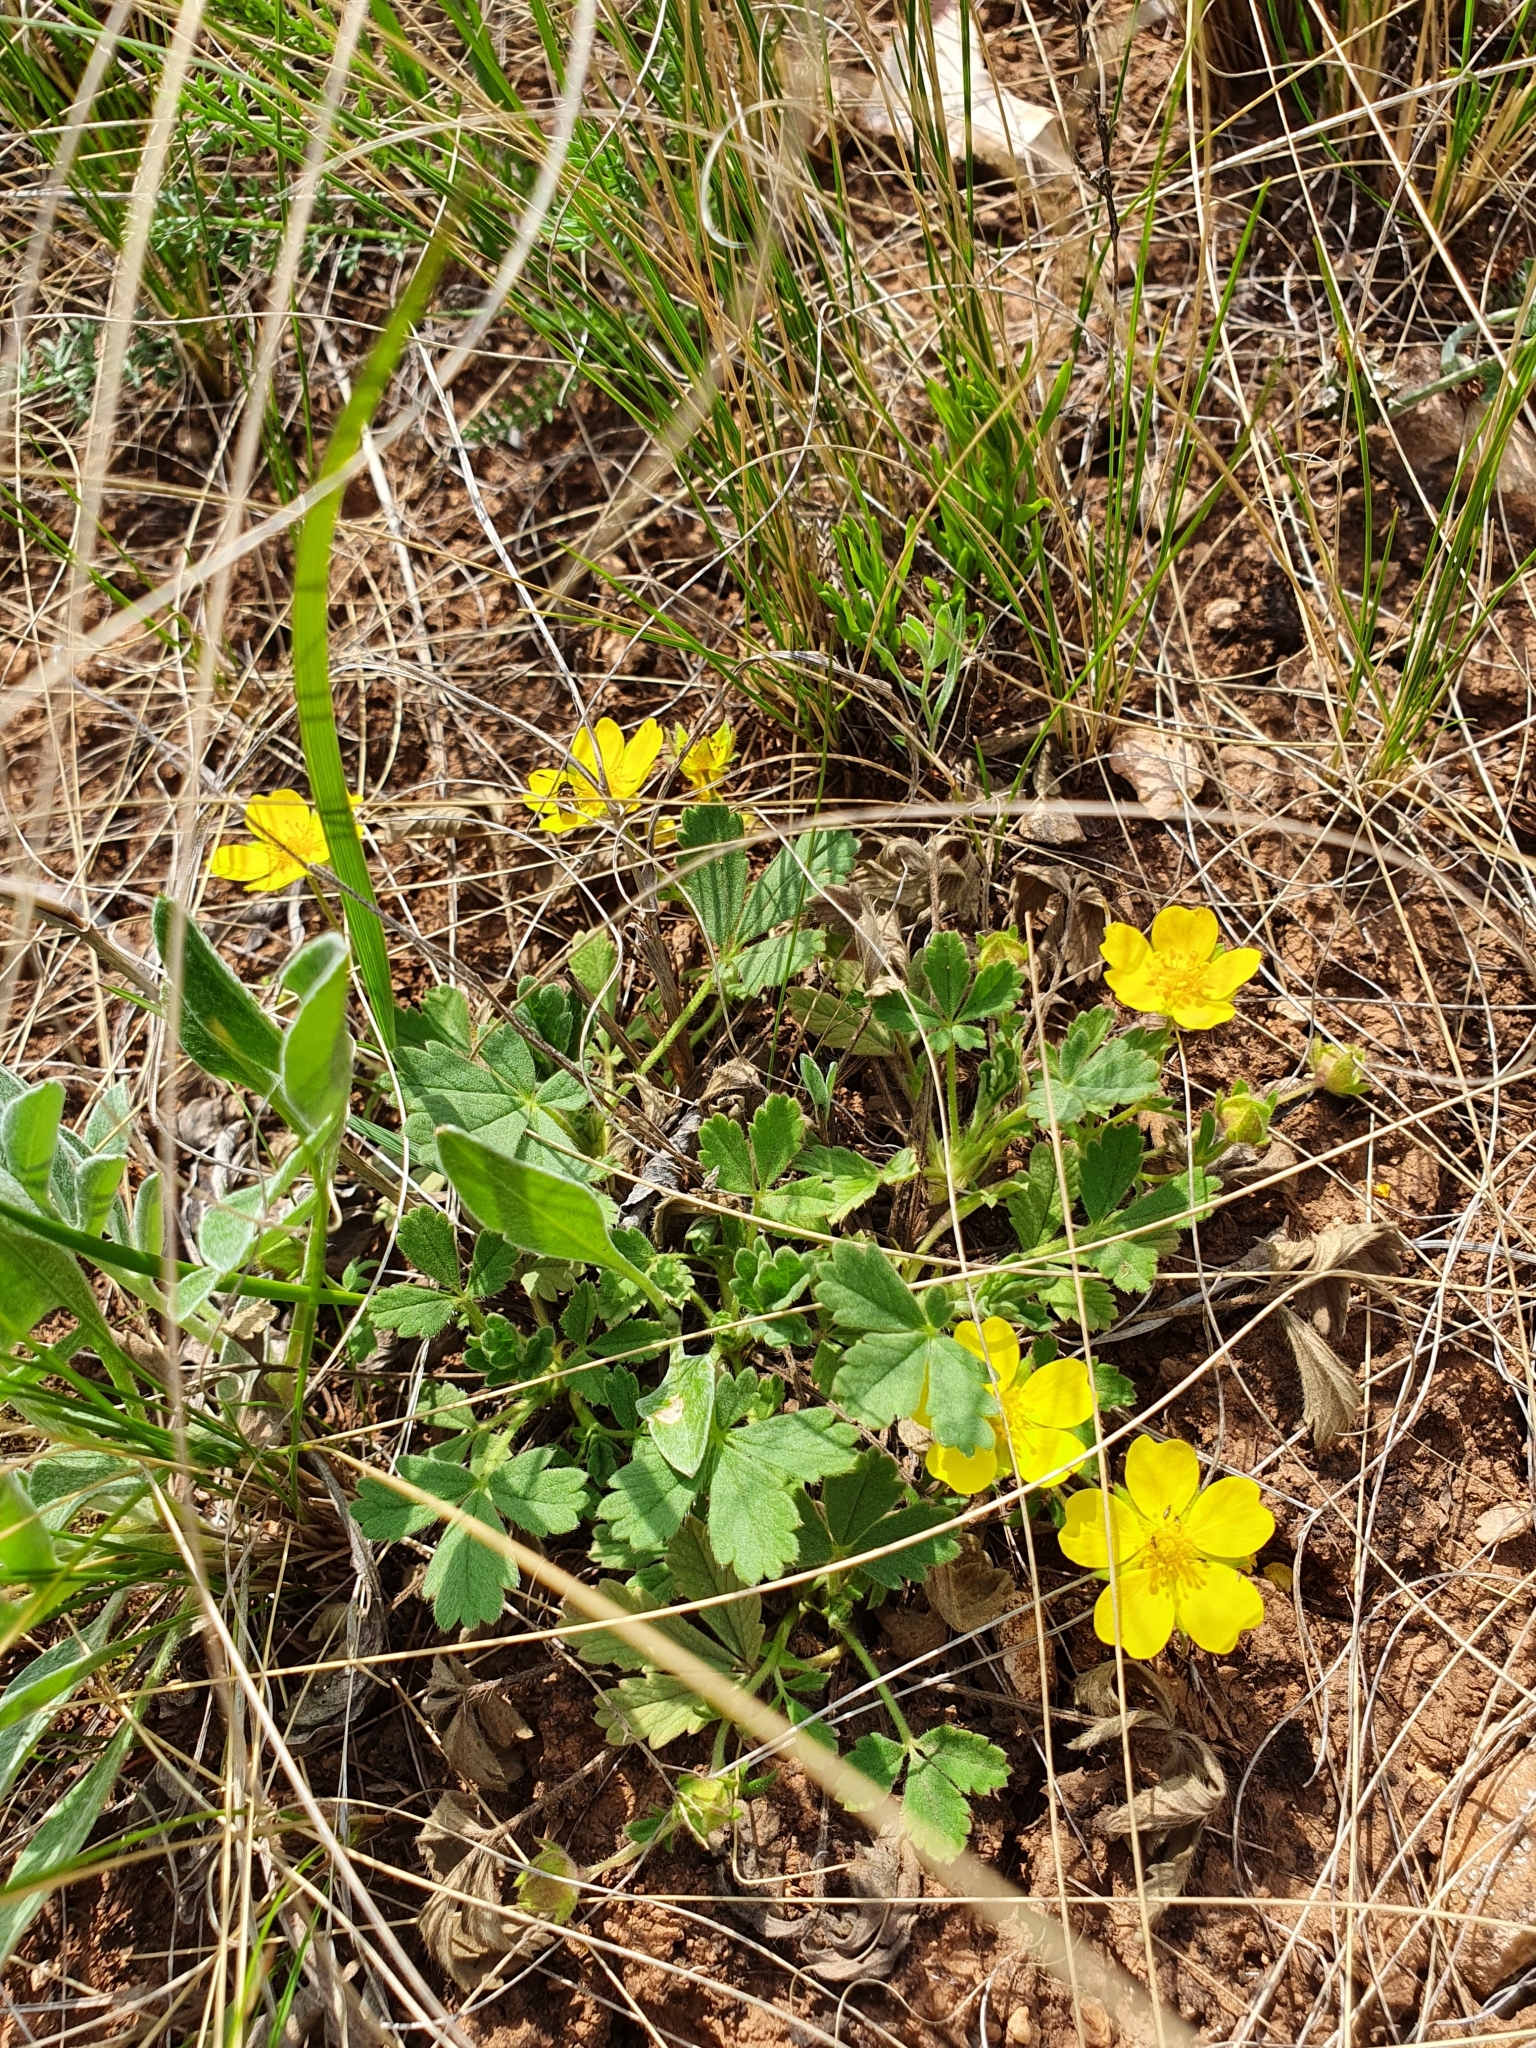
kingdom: Plantae
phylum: Tracheophyta
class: Magnoliopsida
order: Rosales
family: Rosaceae
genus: Potentilla
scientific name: Potentilla incana
